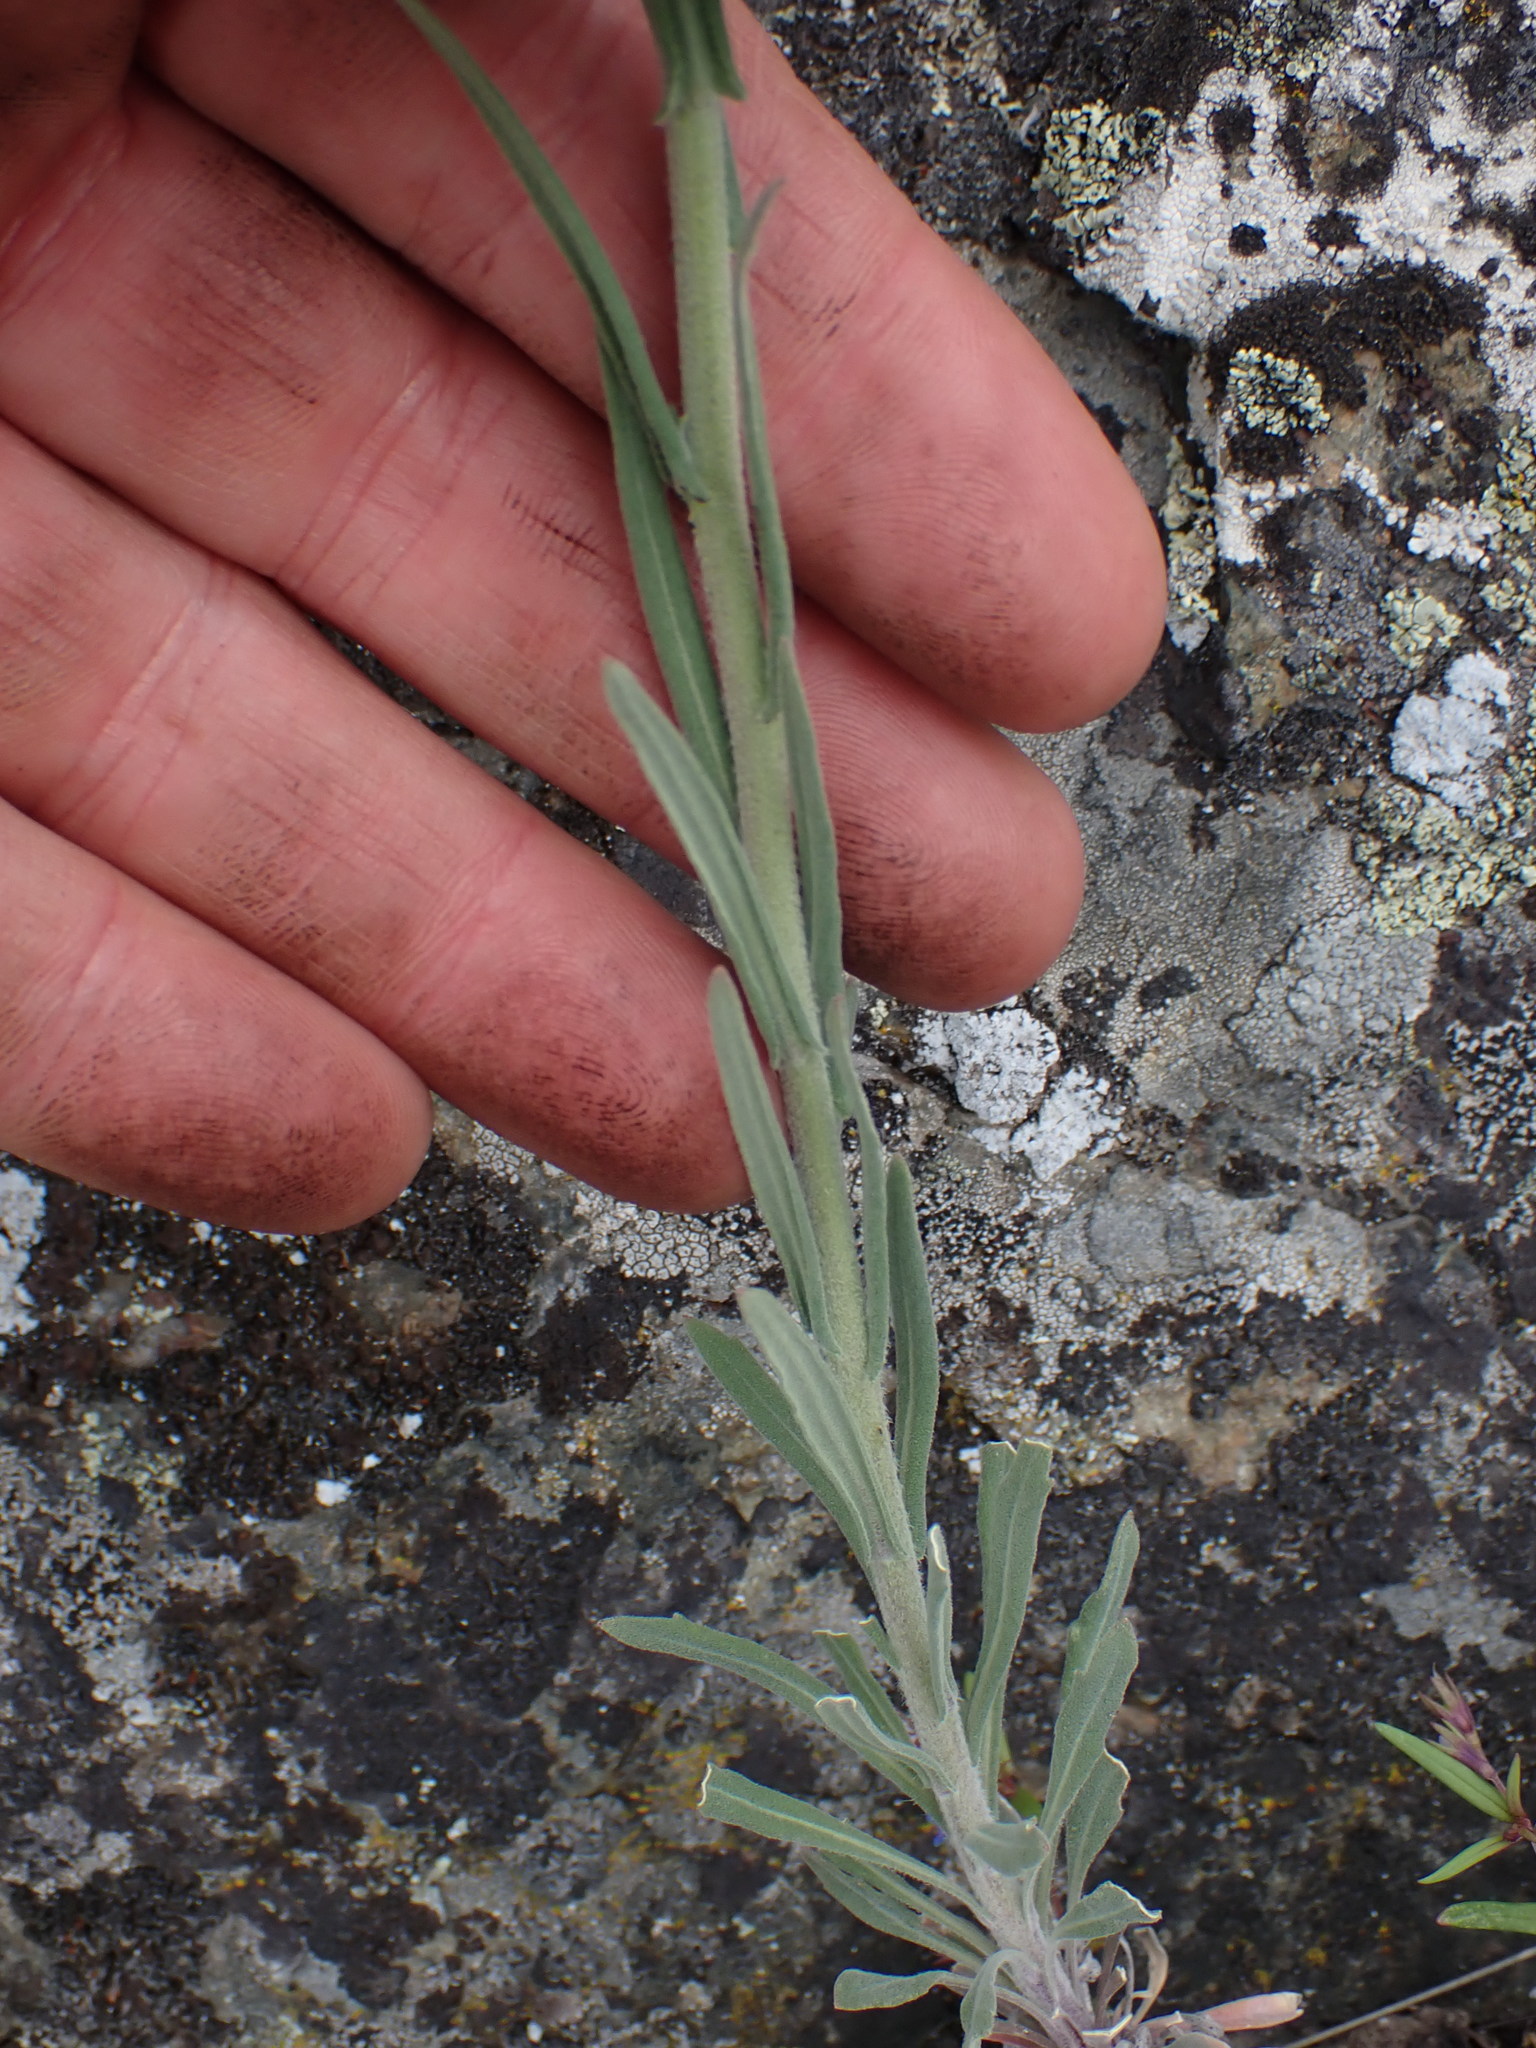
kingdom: Plantae
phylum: Tracheophyta
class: Magnoliopsida
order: Brassicales
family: Brassicaceae
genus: Boechera
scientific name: Boechera retrofracta
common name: Dangling suncress
